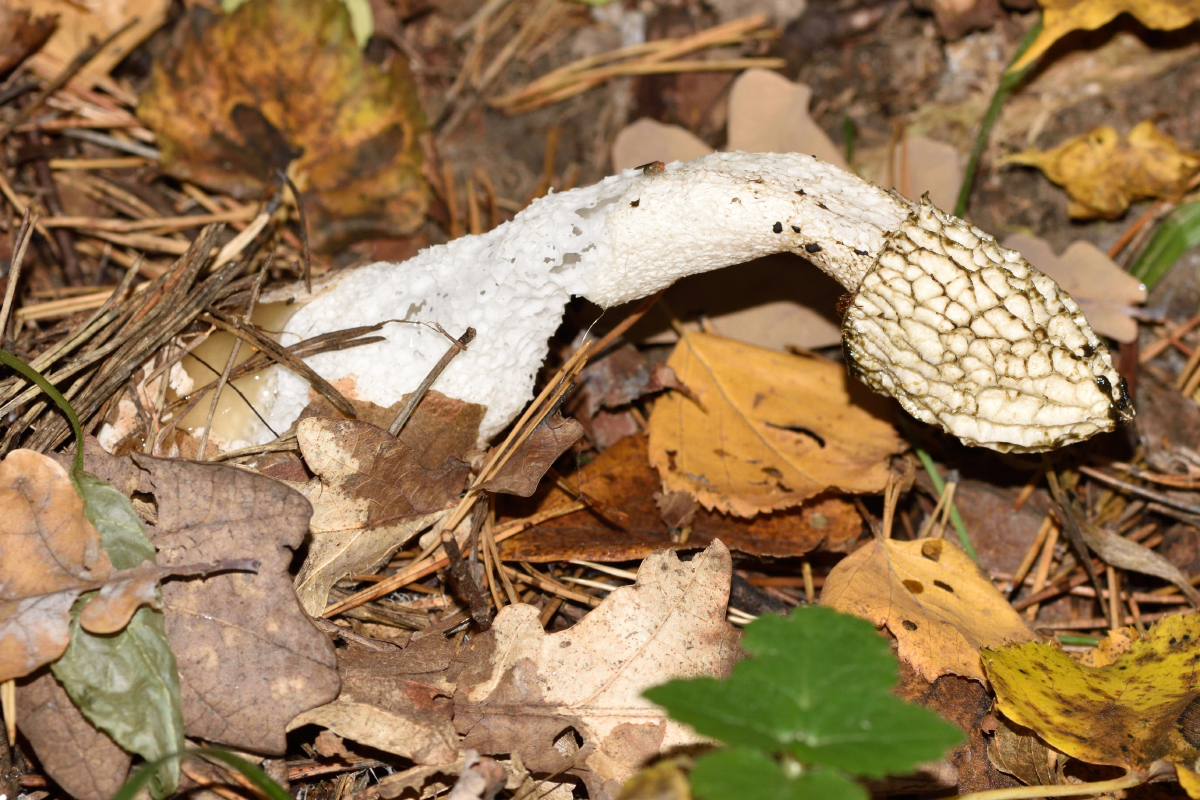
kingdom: Fungi
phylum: Basidiomycota
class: Agaricomycetes
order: Phallales
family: Phallaceae
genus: Phallus
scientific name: Phallus impudicus
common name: Common stinkhorn
